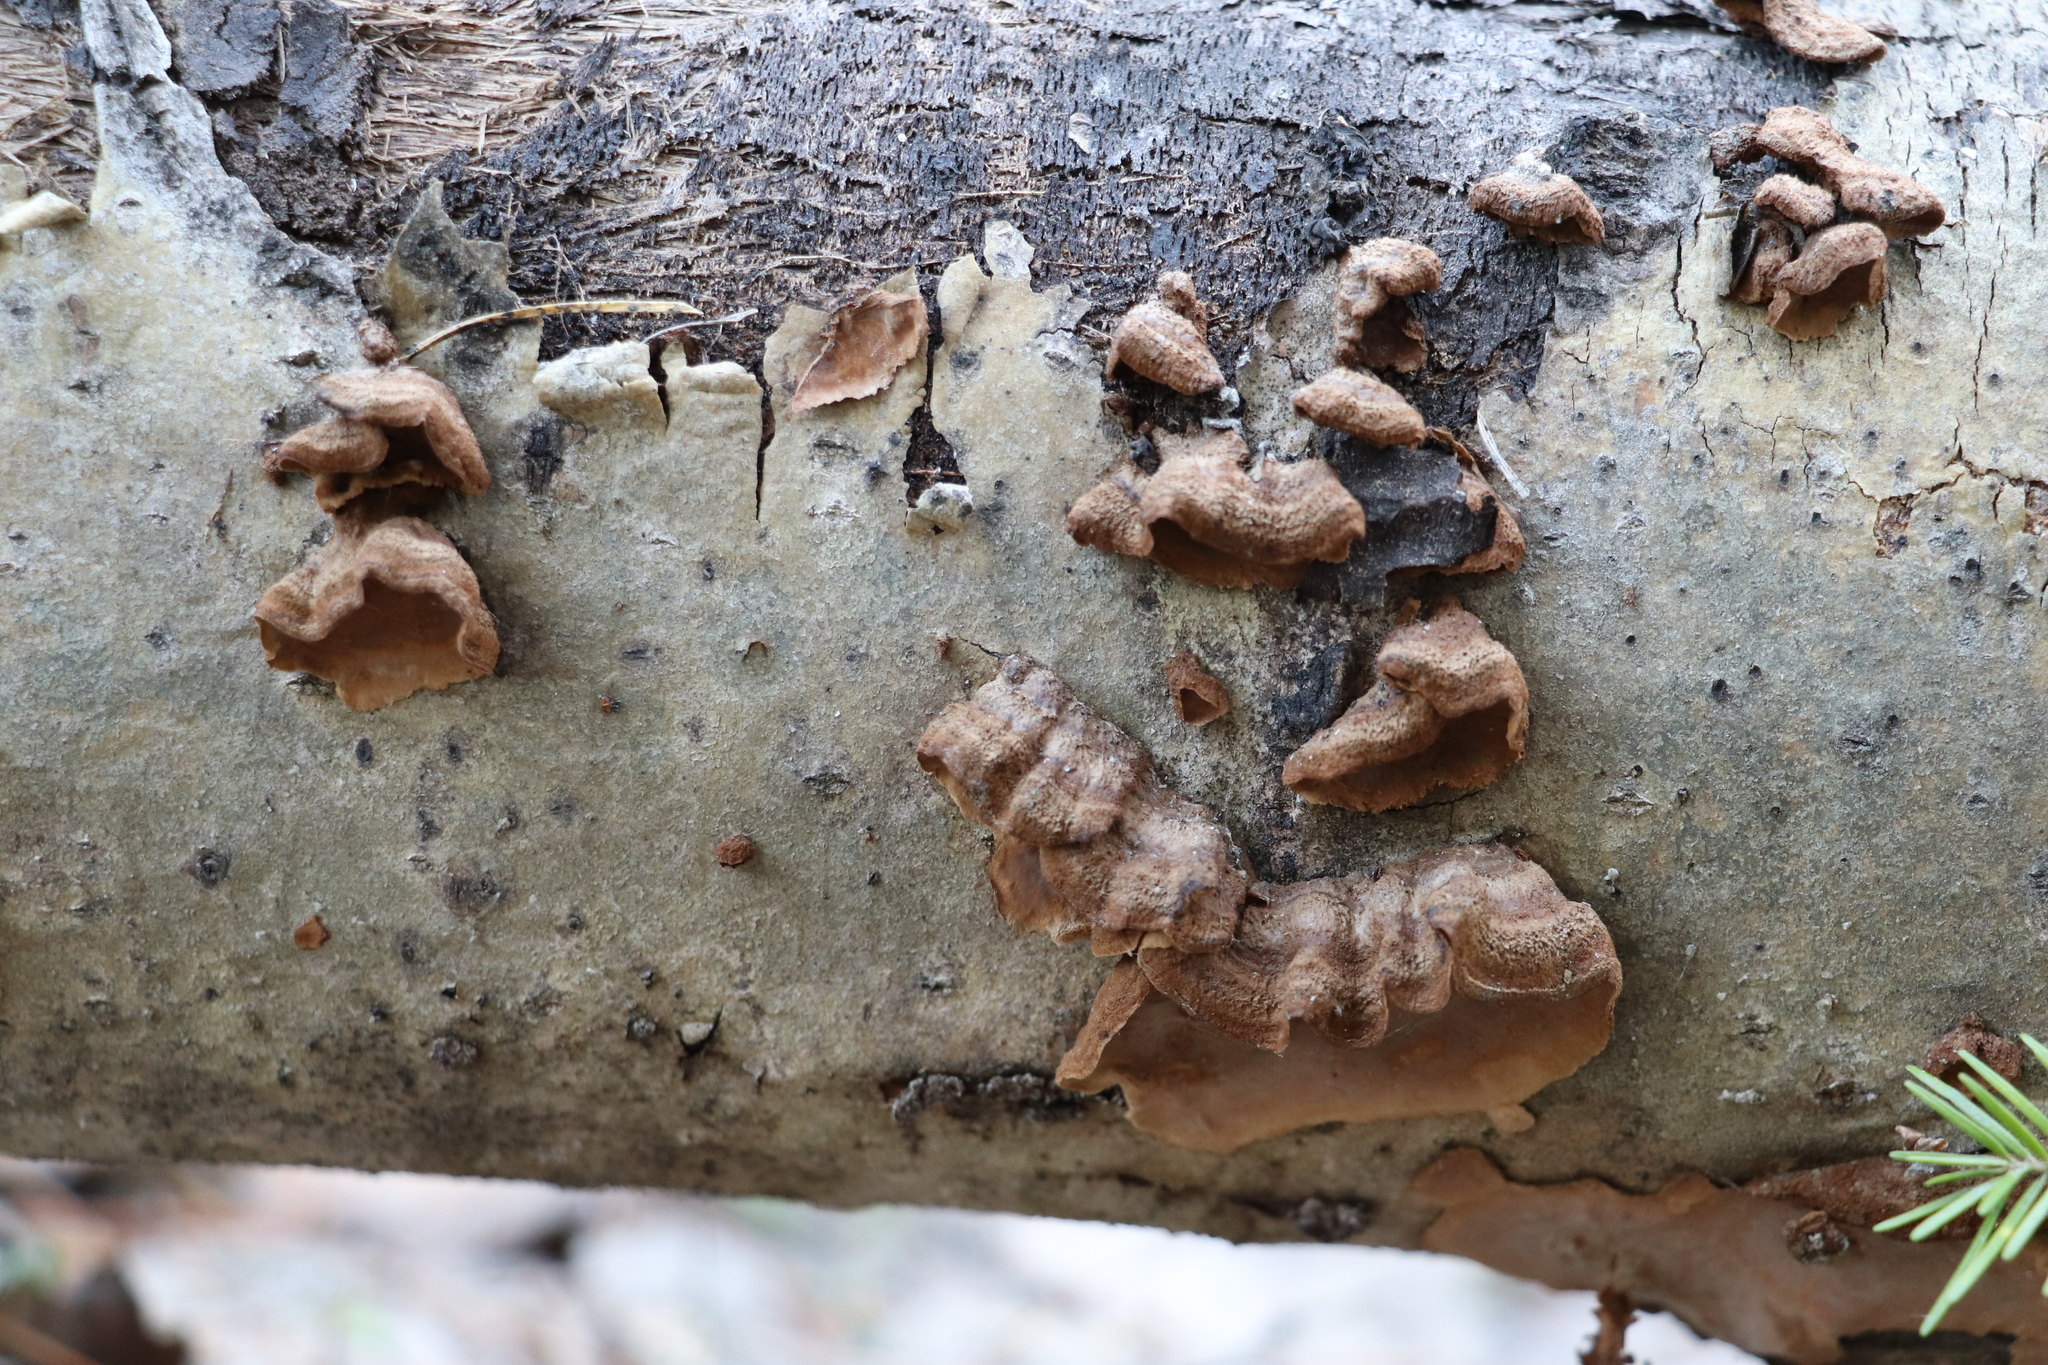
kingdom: Fungi
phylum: Basidiomycota
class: Agaricomycetes
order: Hymenochaetales
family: Hymenochaetaceae
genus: Hydnoporia
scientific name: Hydnoporia tabacina
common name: Willow glue
